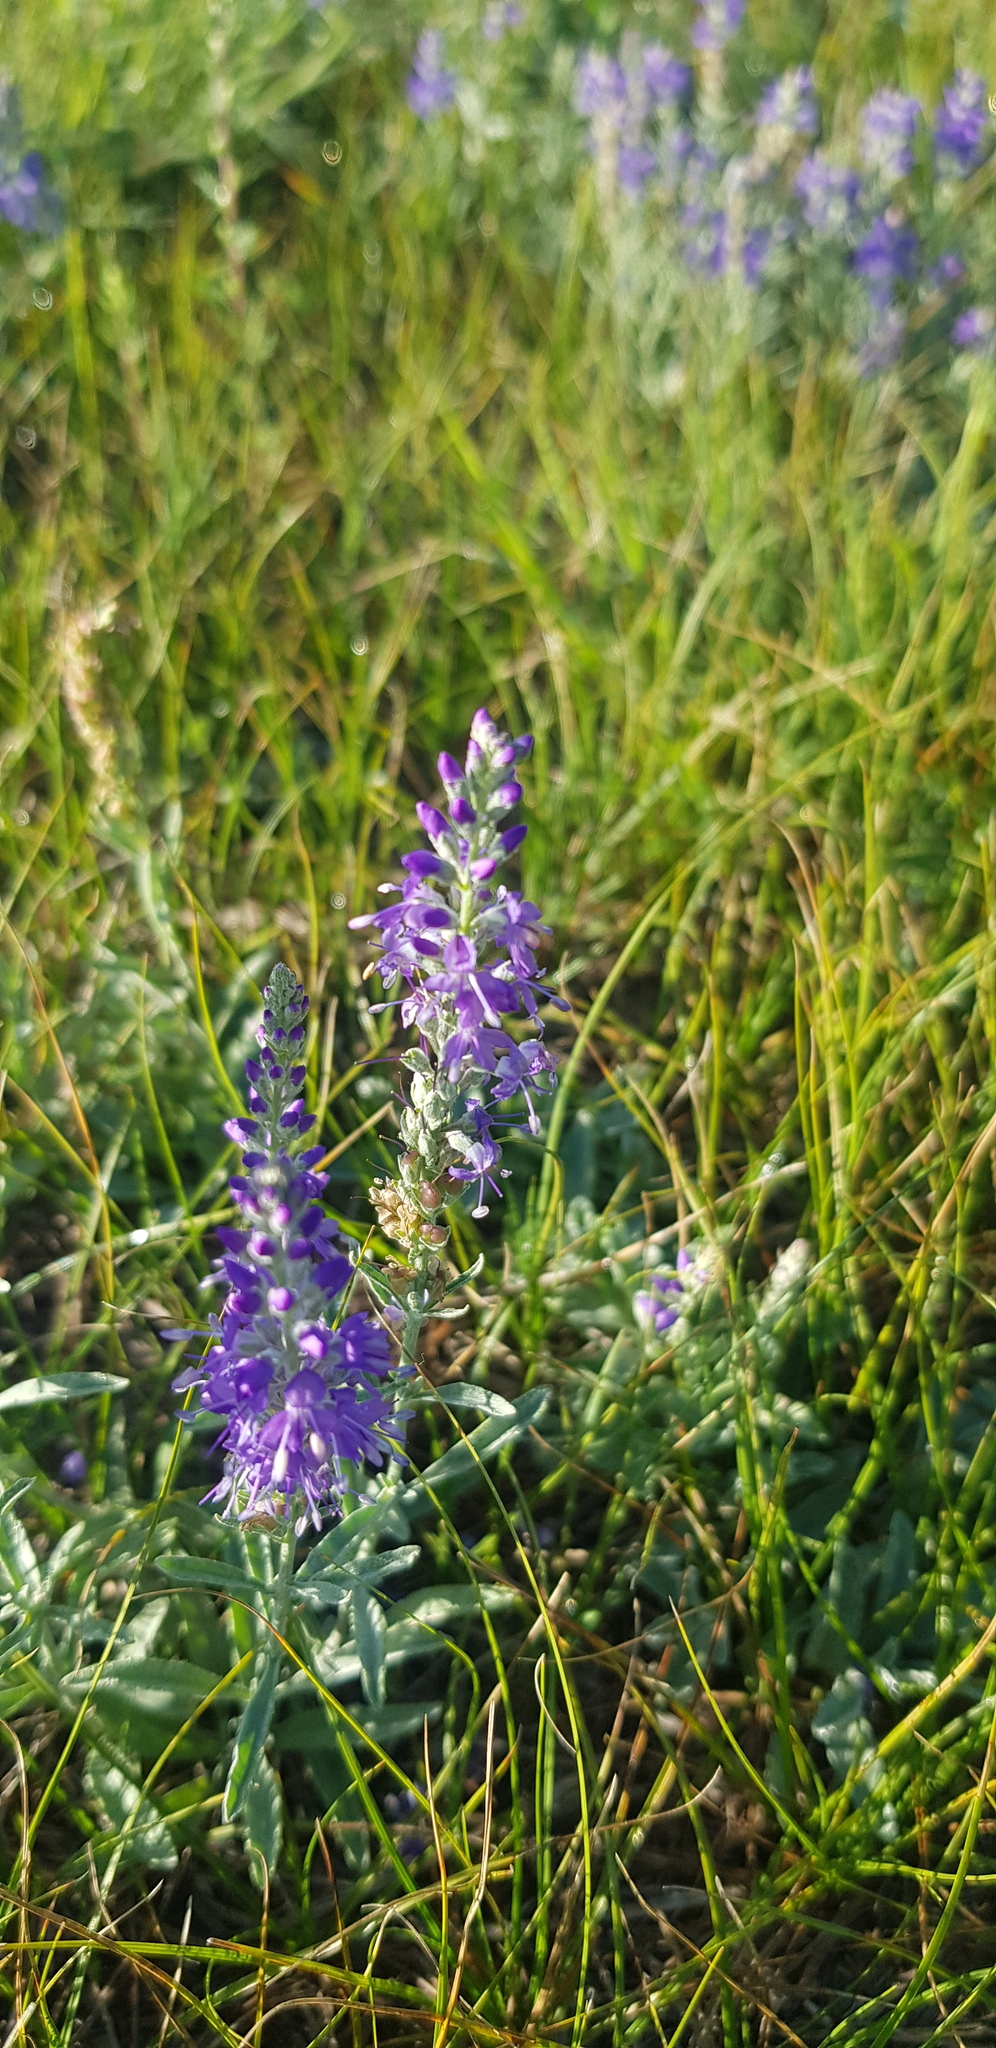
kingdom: Plantae
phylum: Tracheophyta
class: Magnoliopsida
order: Lamiales
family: Plantaginaceae
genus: Veronica
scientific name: Veronica incana
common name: Silver speedwell
